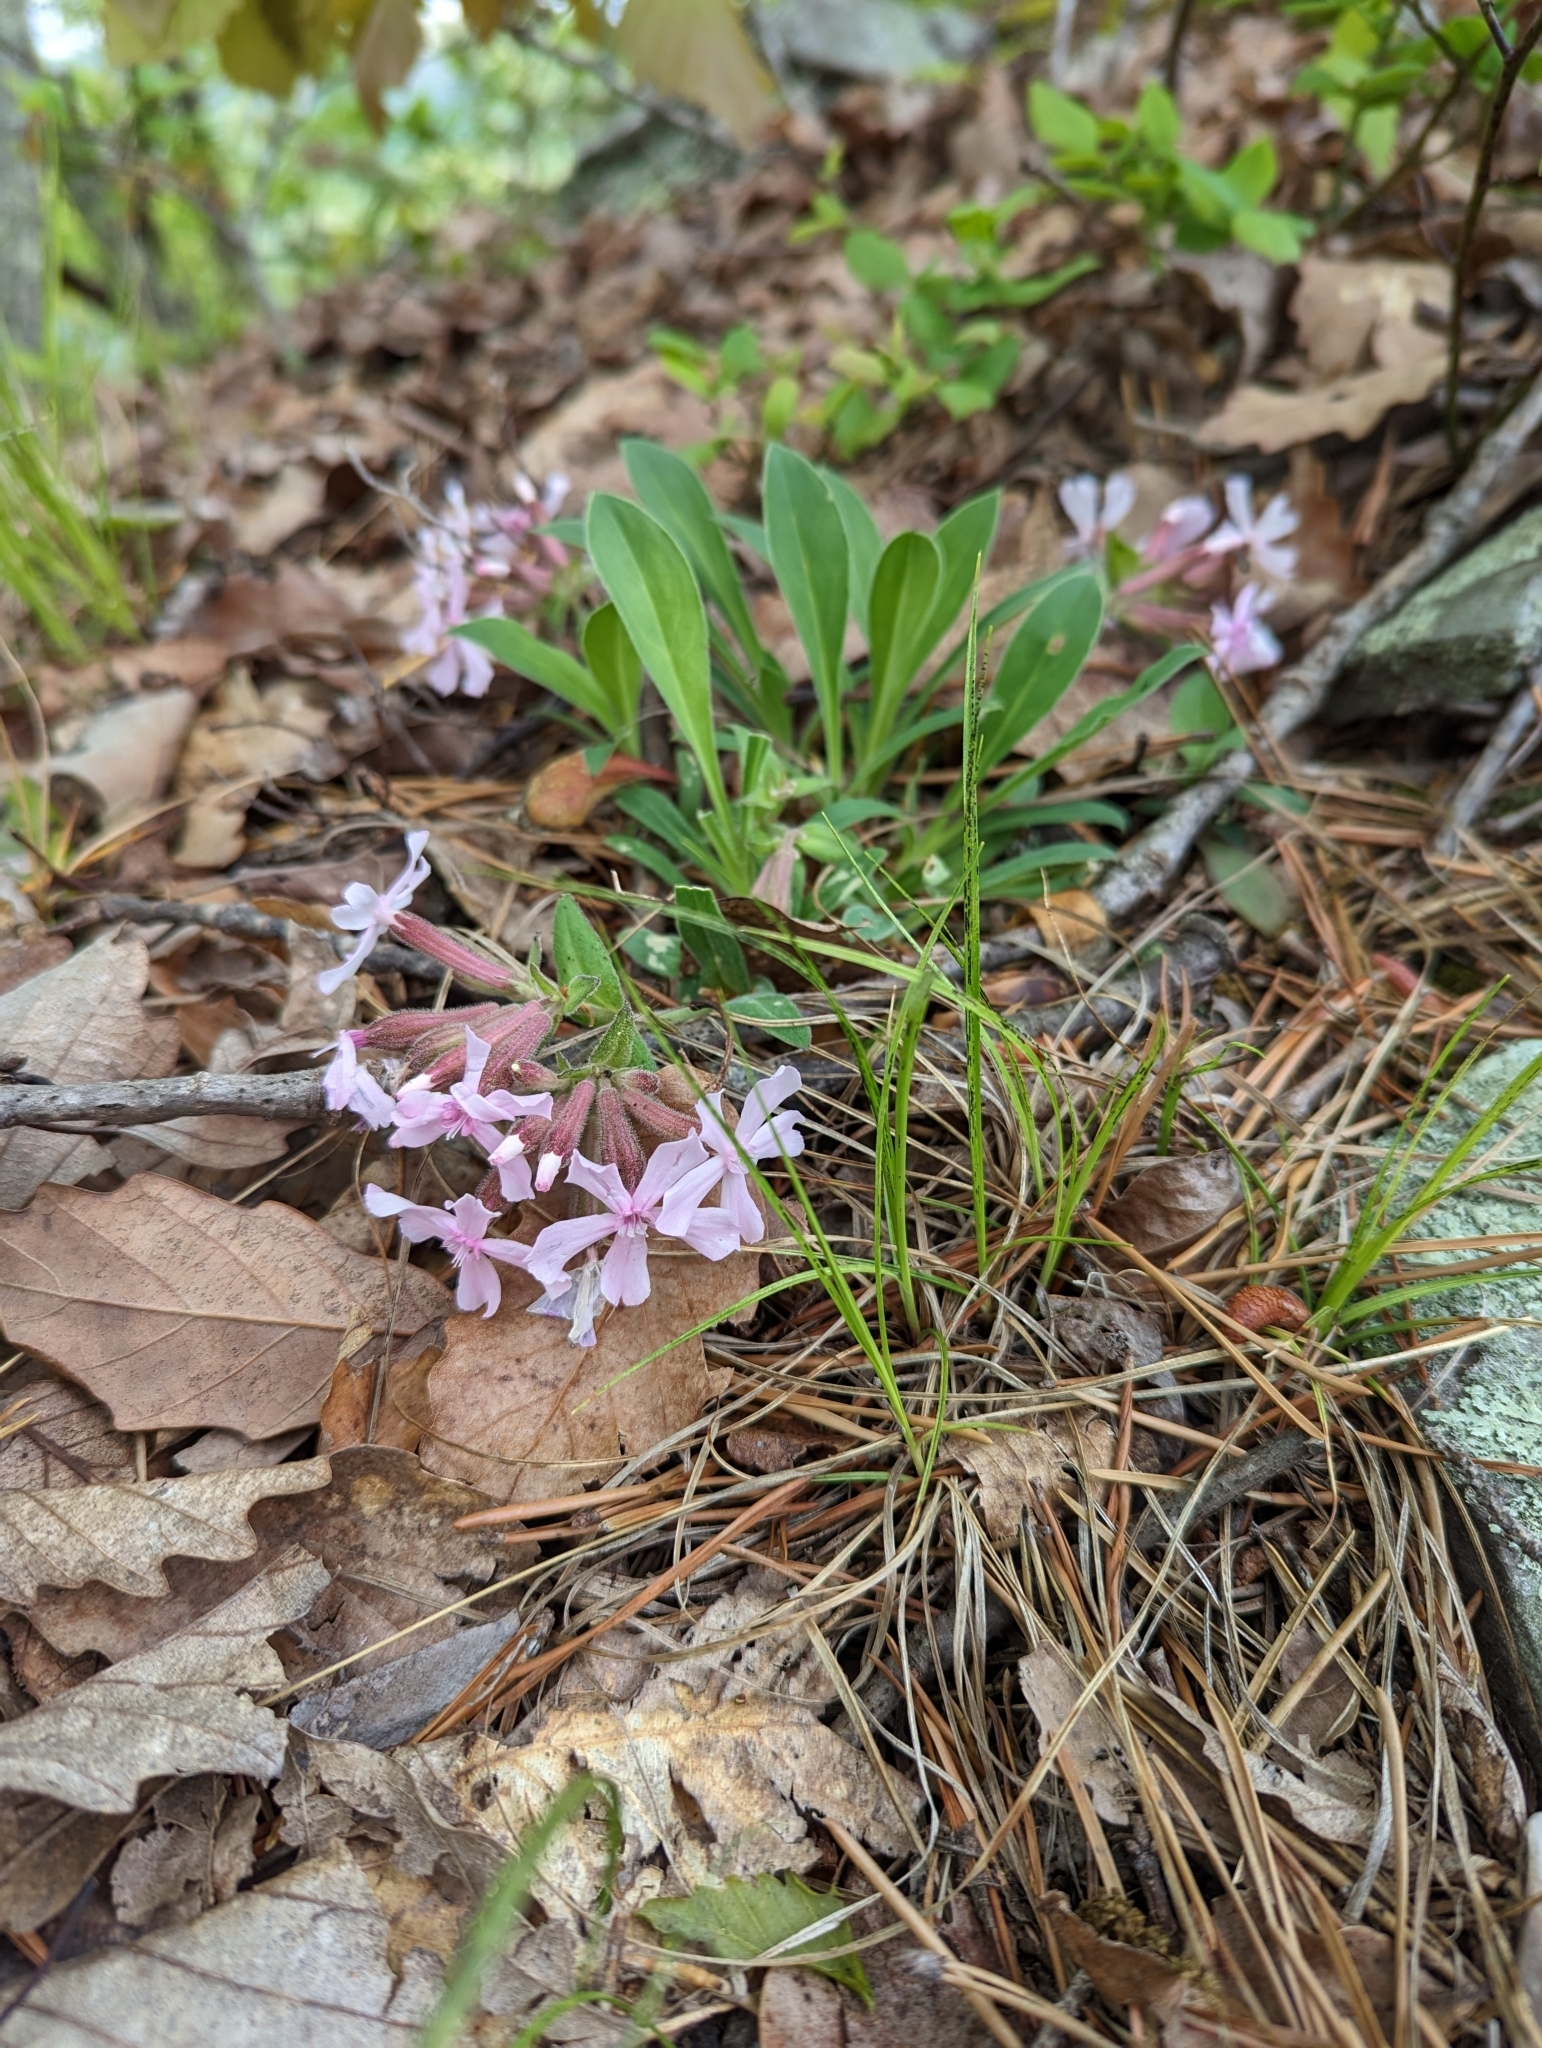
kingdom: Plantae
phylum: Tracheophyta
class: Magnoliopsida
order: Caryophyllales
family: Caryophyllaceae
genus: Silene
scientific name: Silene caroliniana
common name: Sticky catchfly
